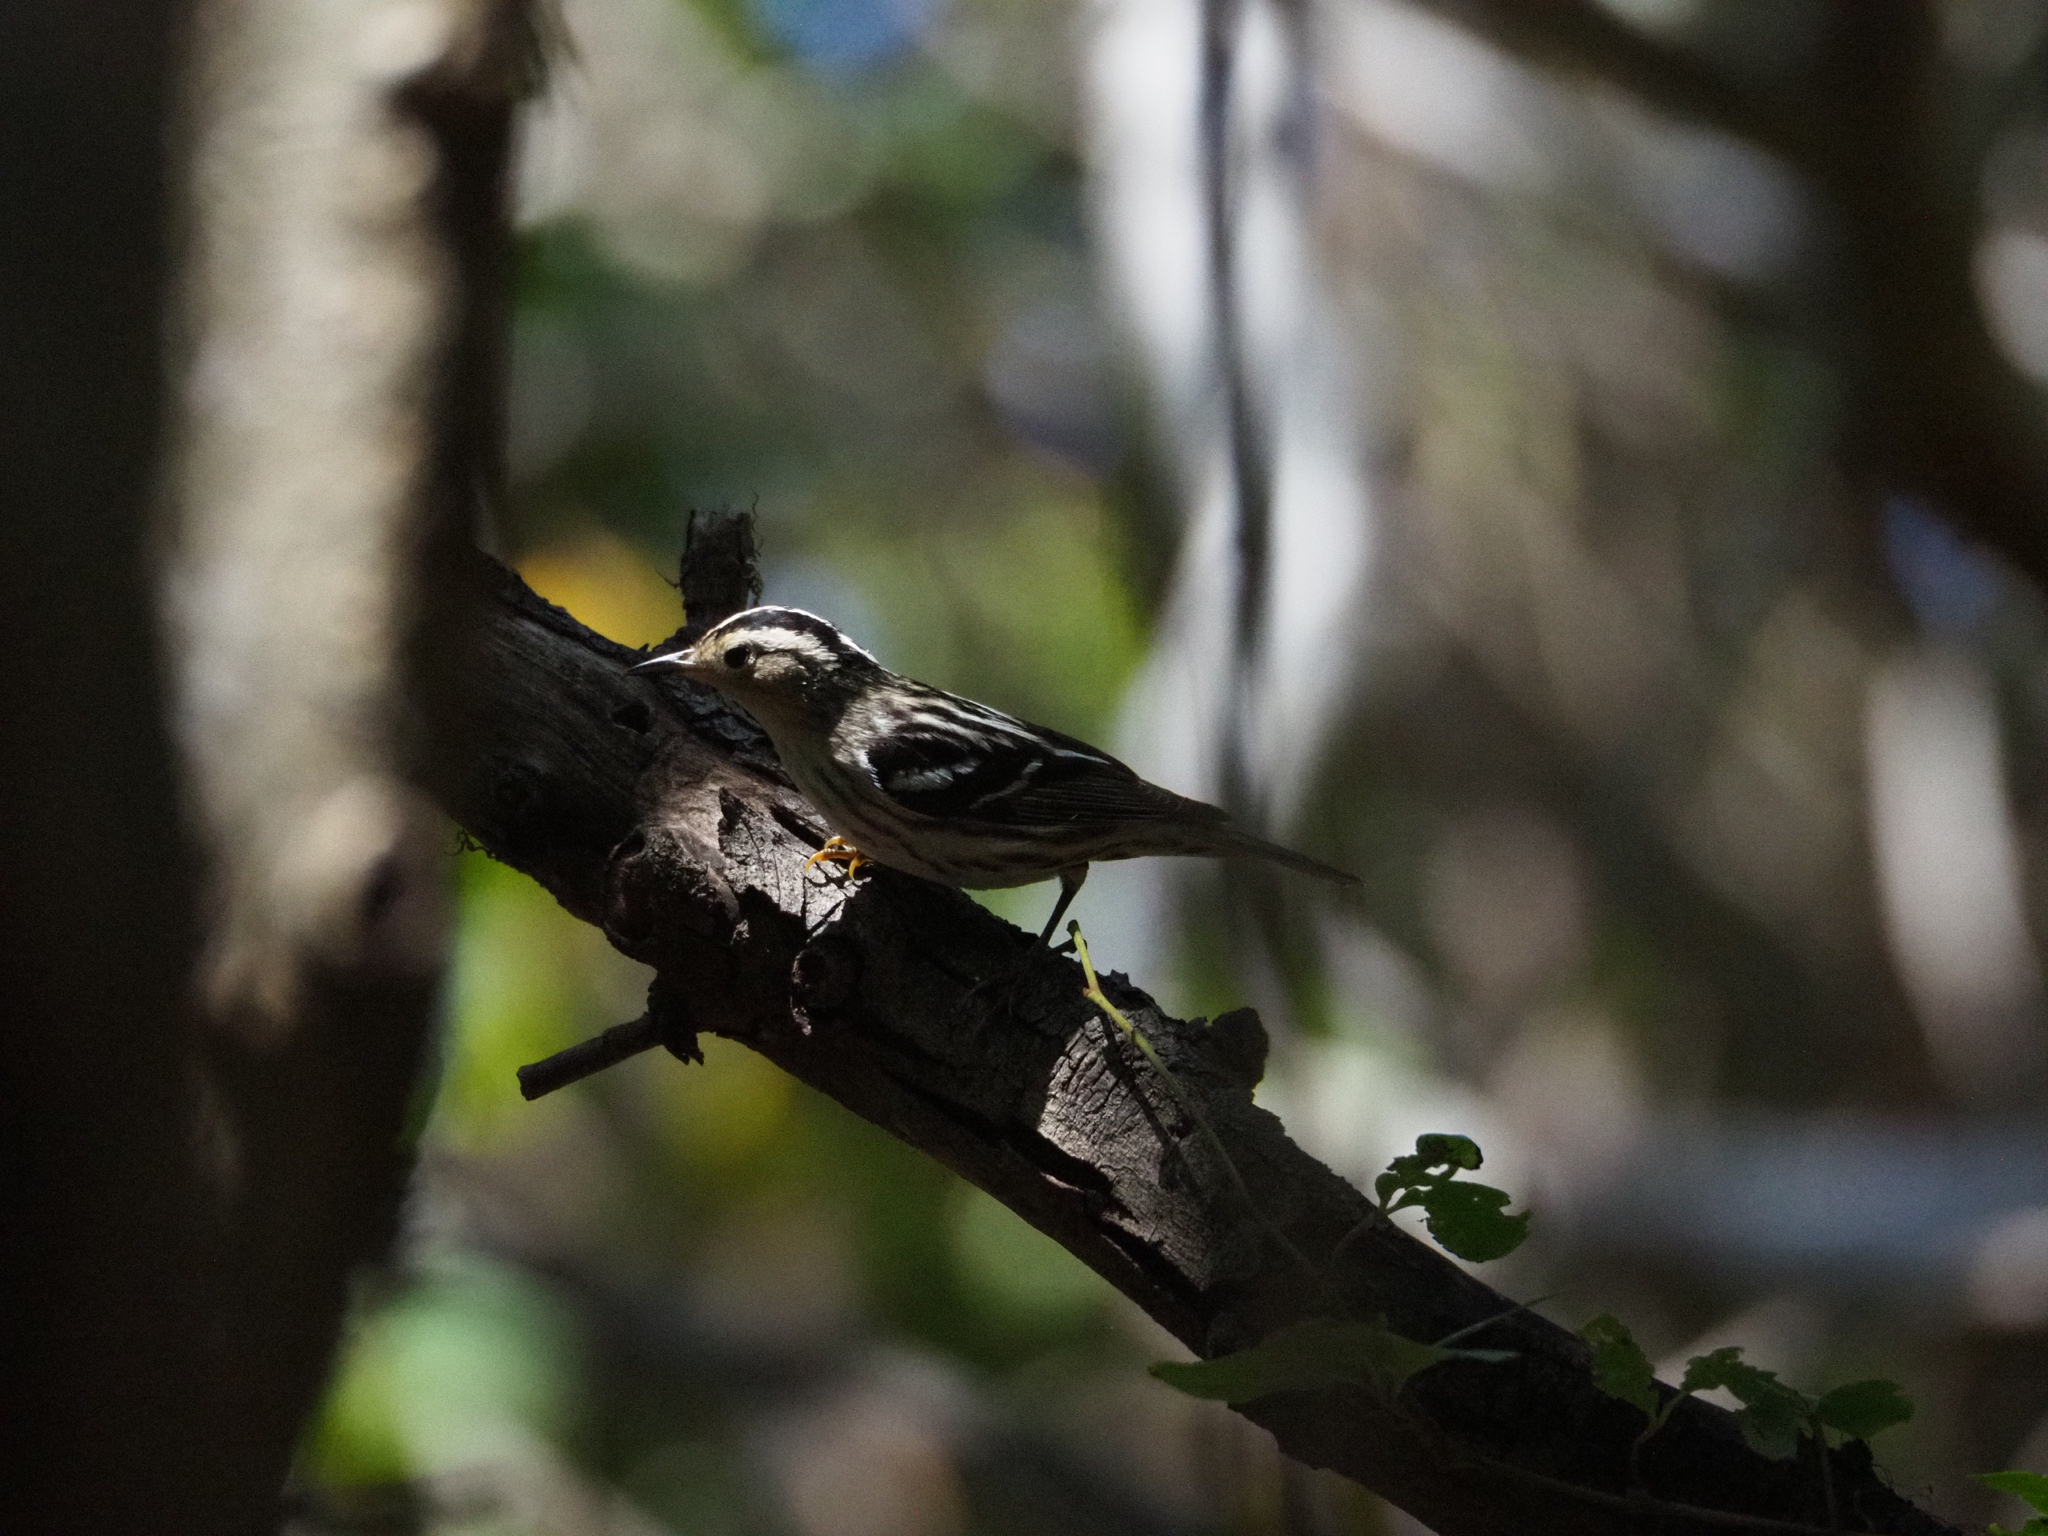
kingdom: Animalia
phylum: Chordata
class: Aves
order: Passeriformes
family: Parulidae
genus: Mniotilta
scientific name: Mniotilta varia
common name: Black-and-white warbler
